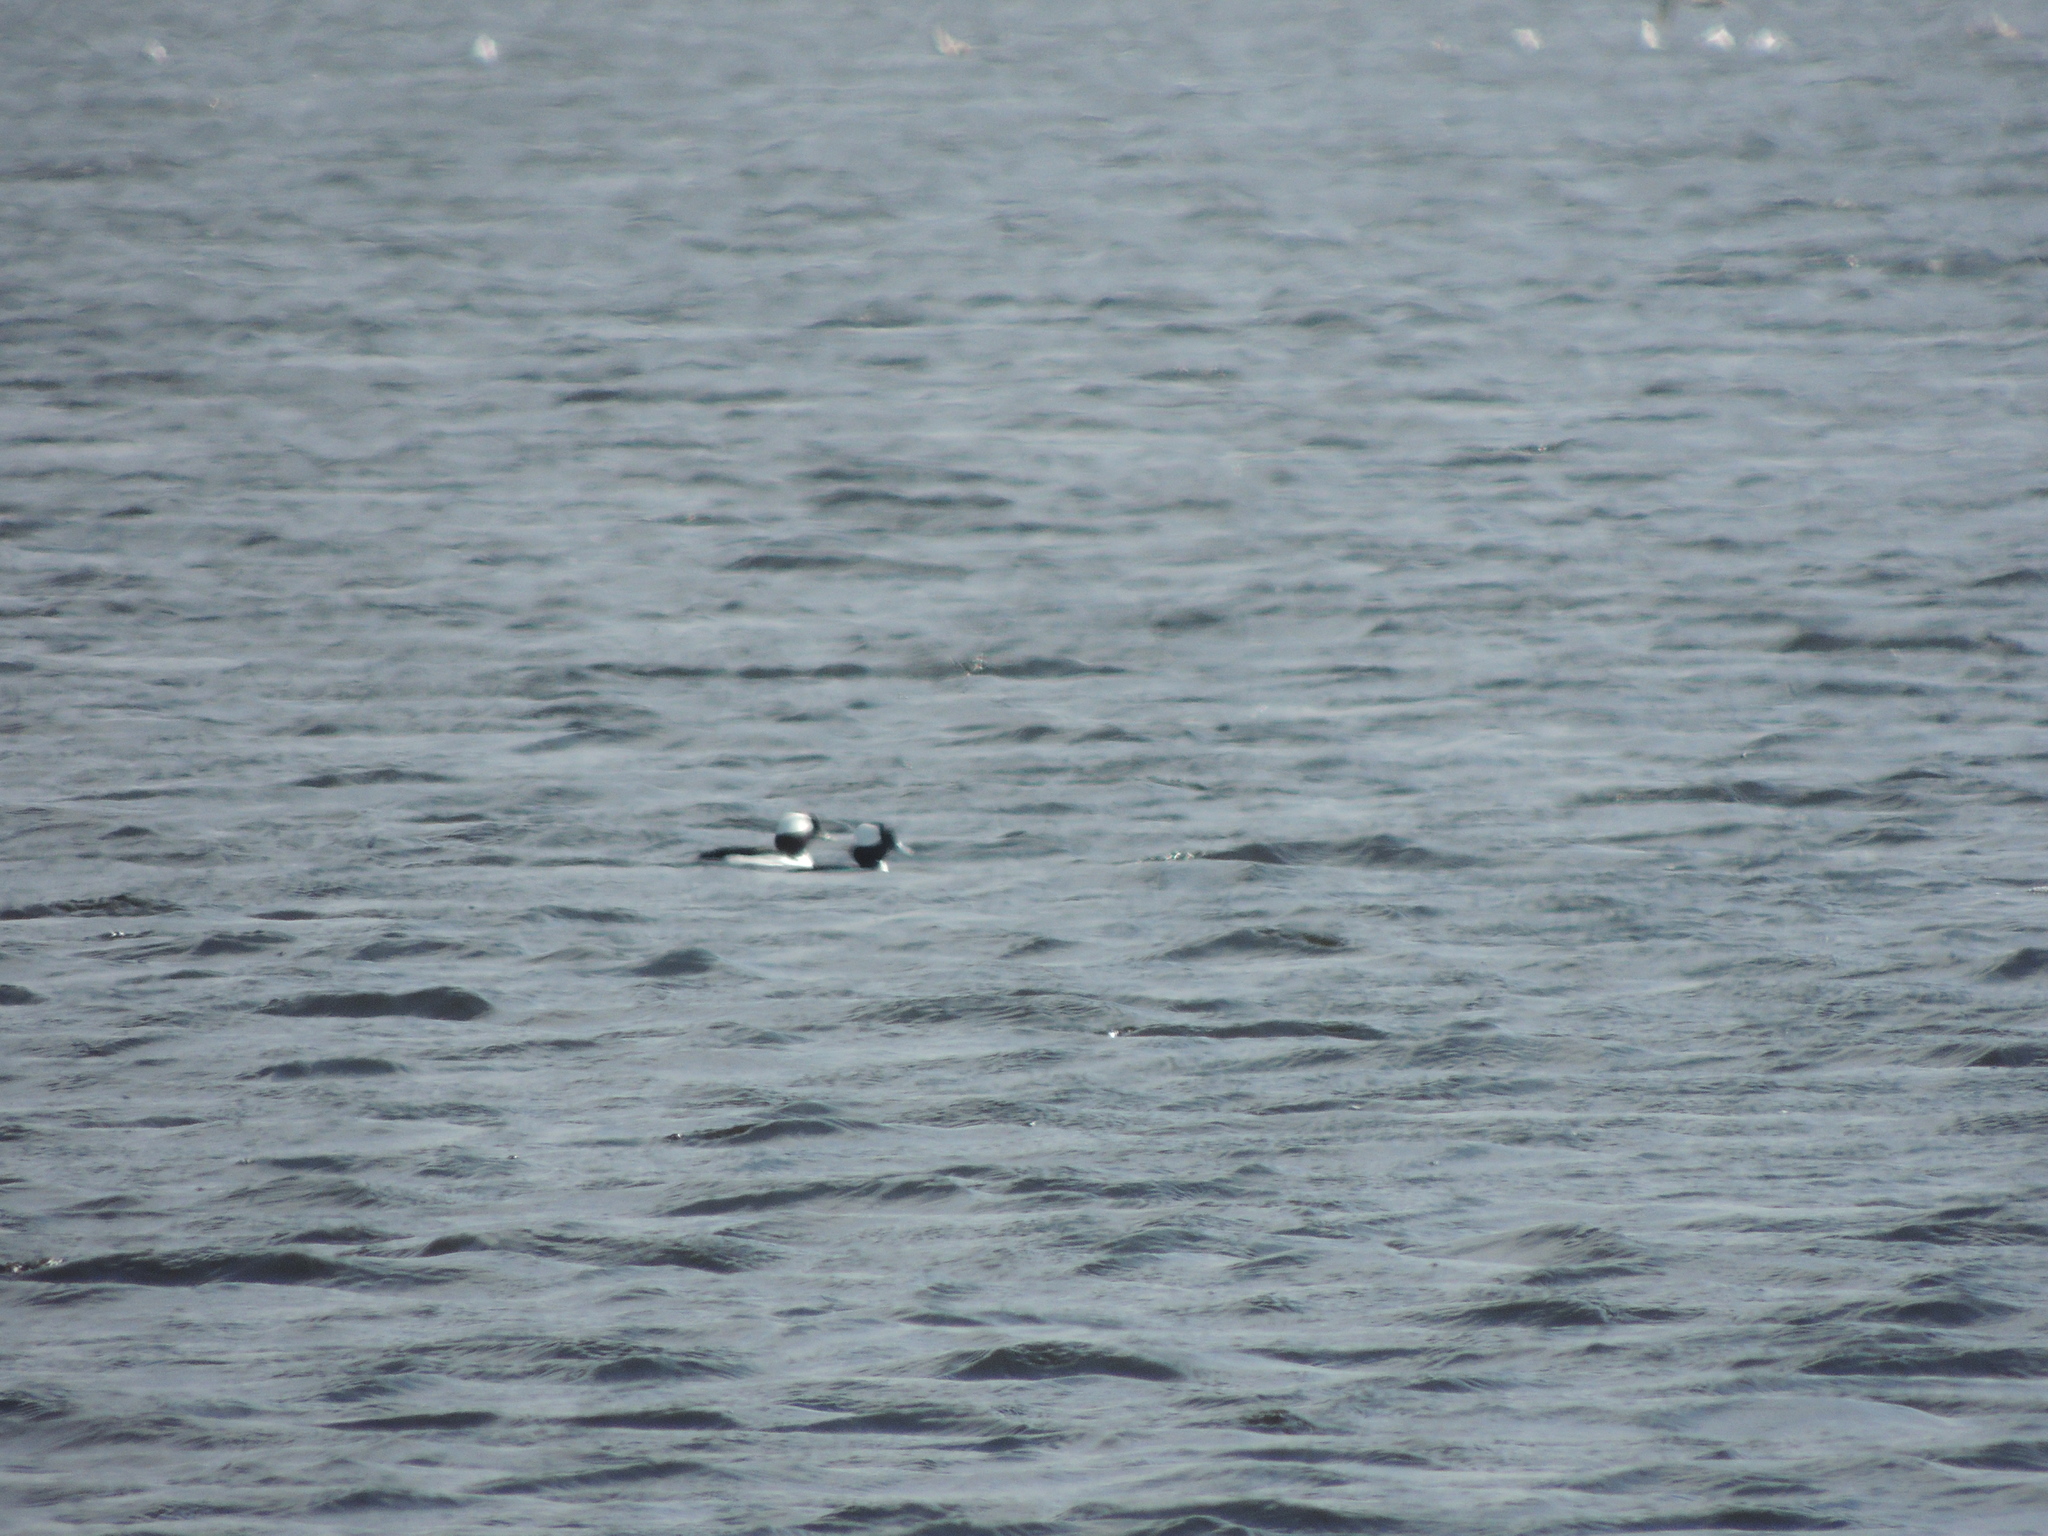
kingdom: Animalia
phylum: Chordata
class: Aves
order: Anseriformes
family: Anatidae
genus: Bucephala
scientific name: Bucephala albeola
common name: Bufflehead
